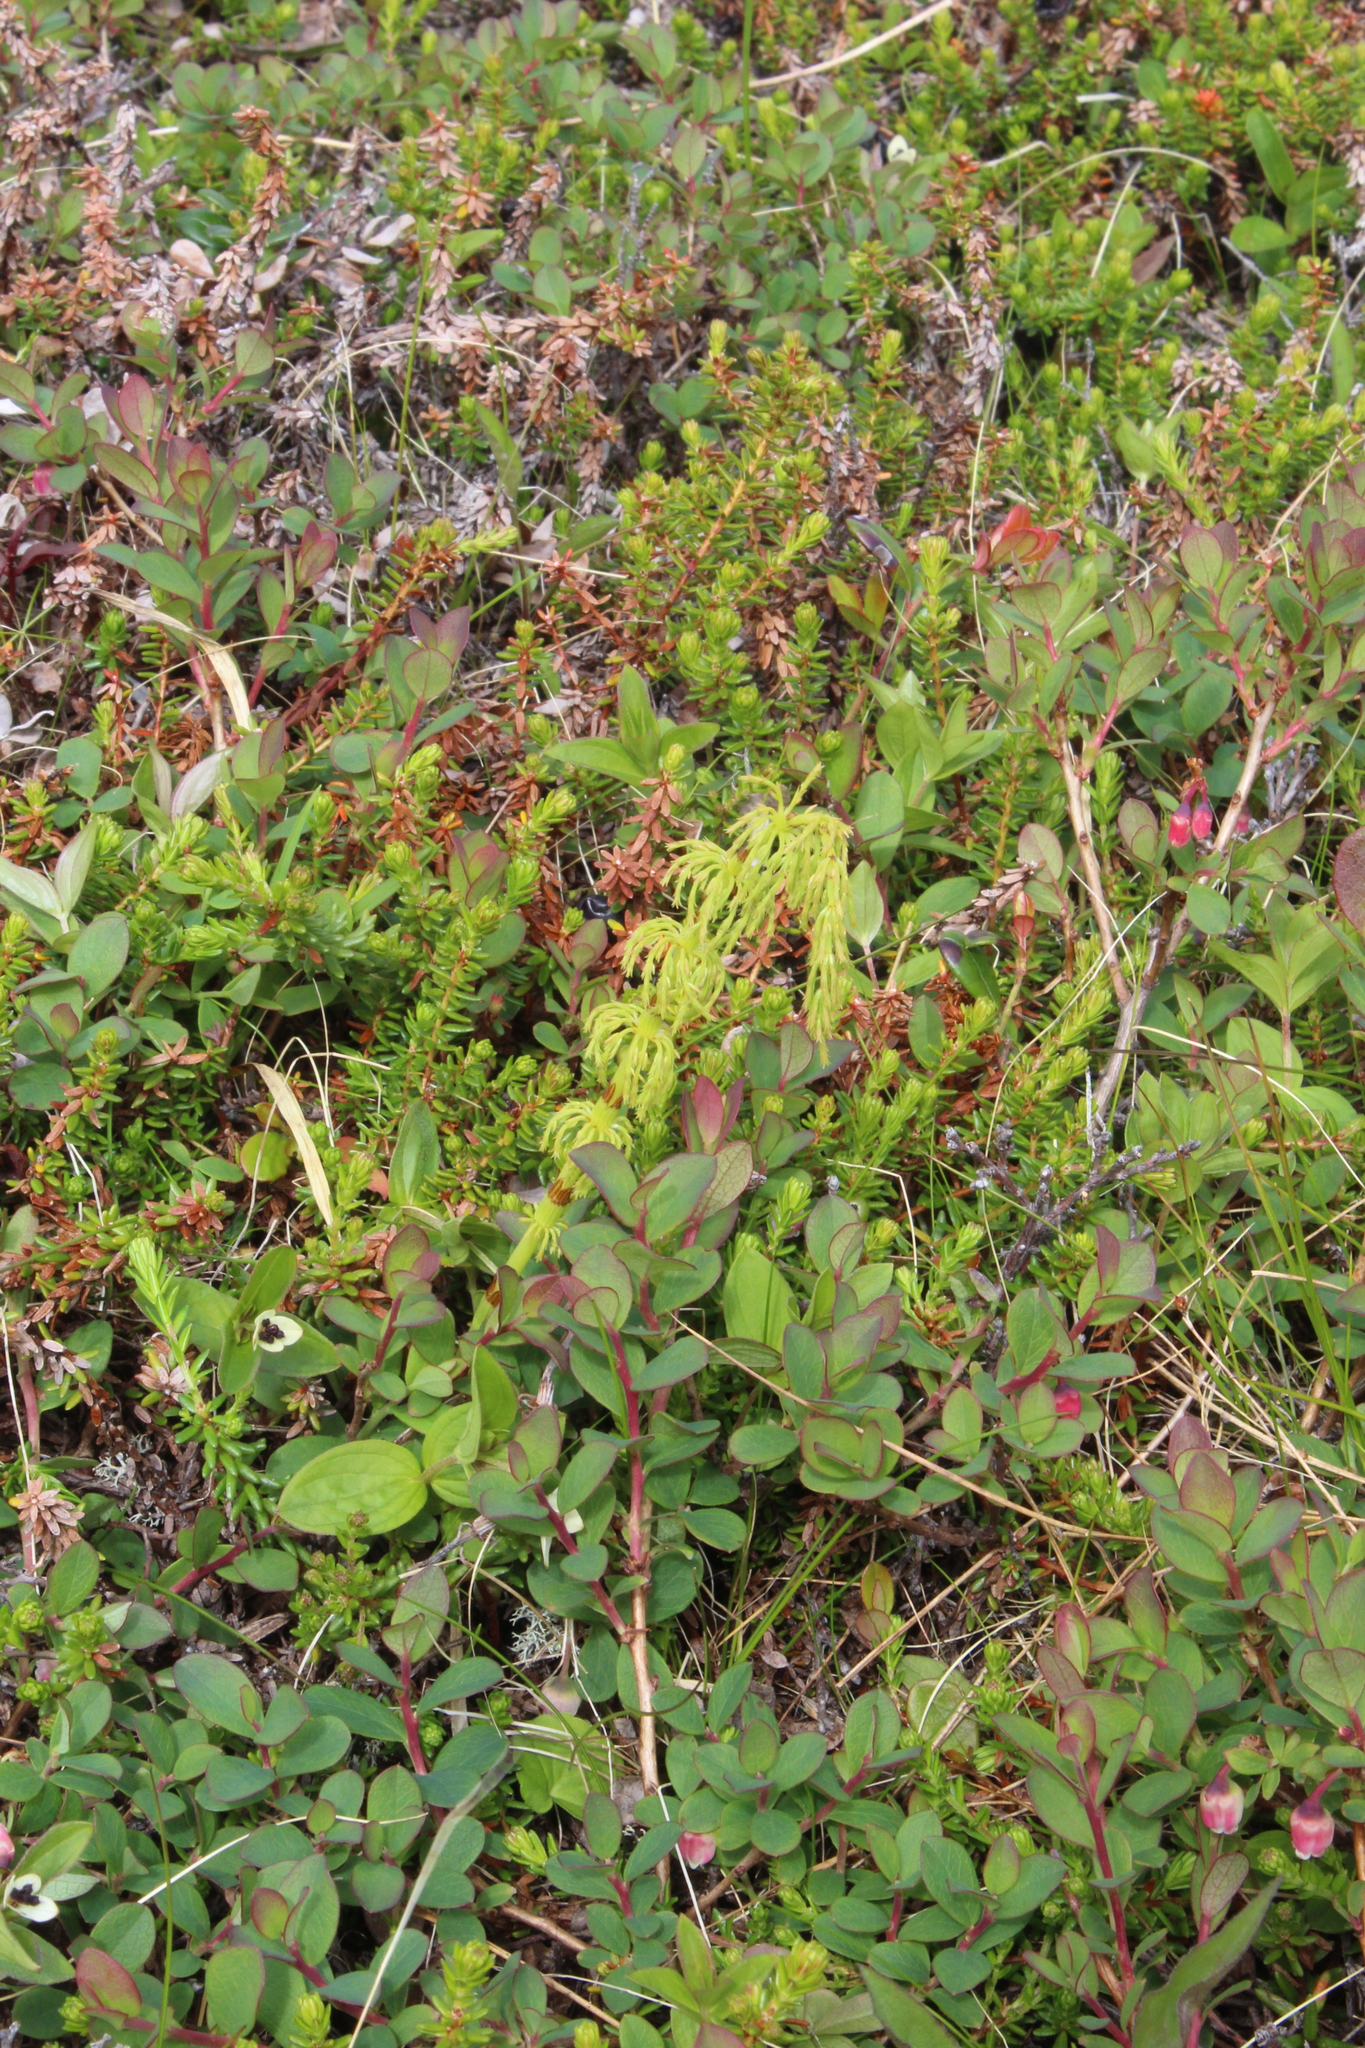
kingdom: Plantae
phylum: Tracheophyta
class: Polypodiopsida
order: Equisetales
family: Equisetaceae
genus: Equisetum
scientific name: Equisetum sylvaticum
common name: Wood horsetail
